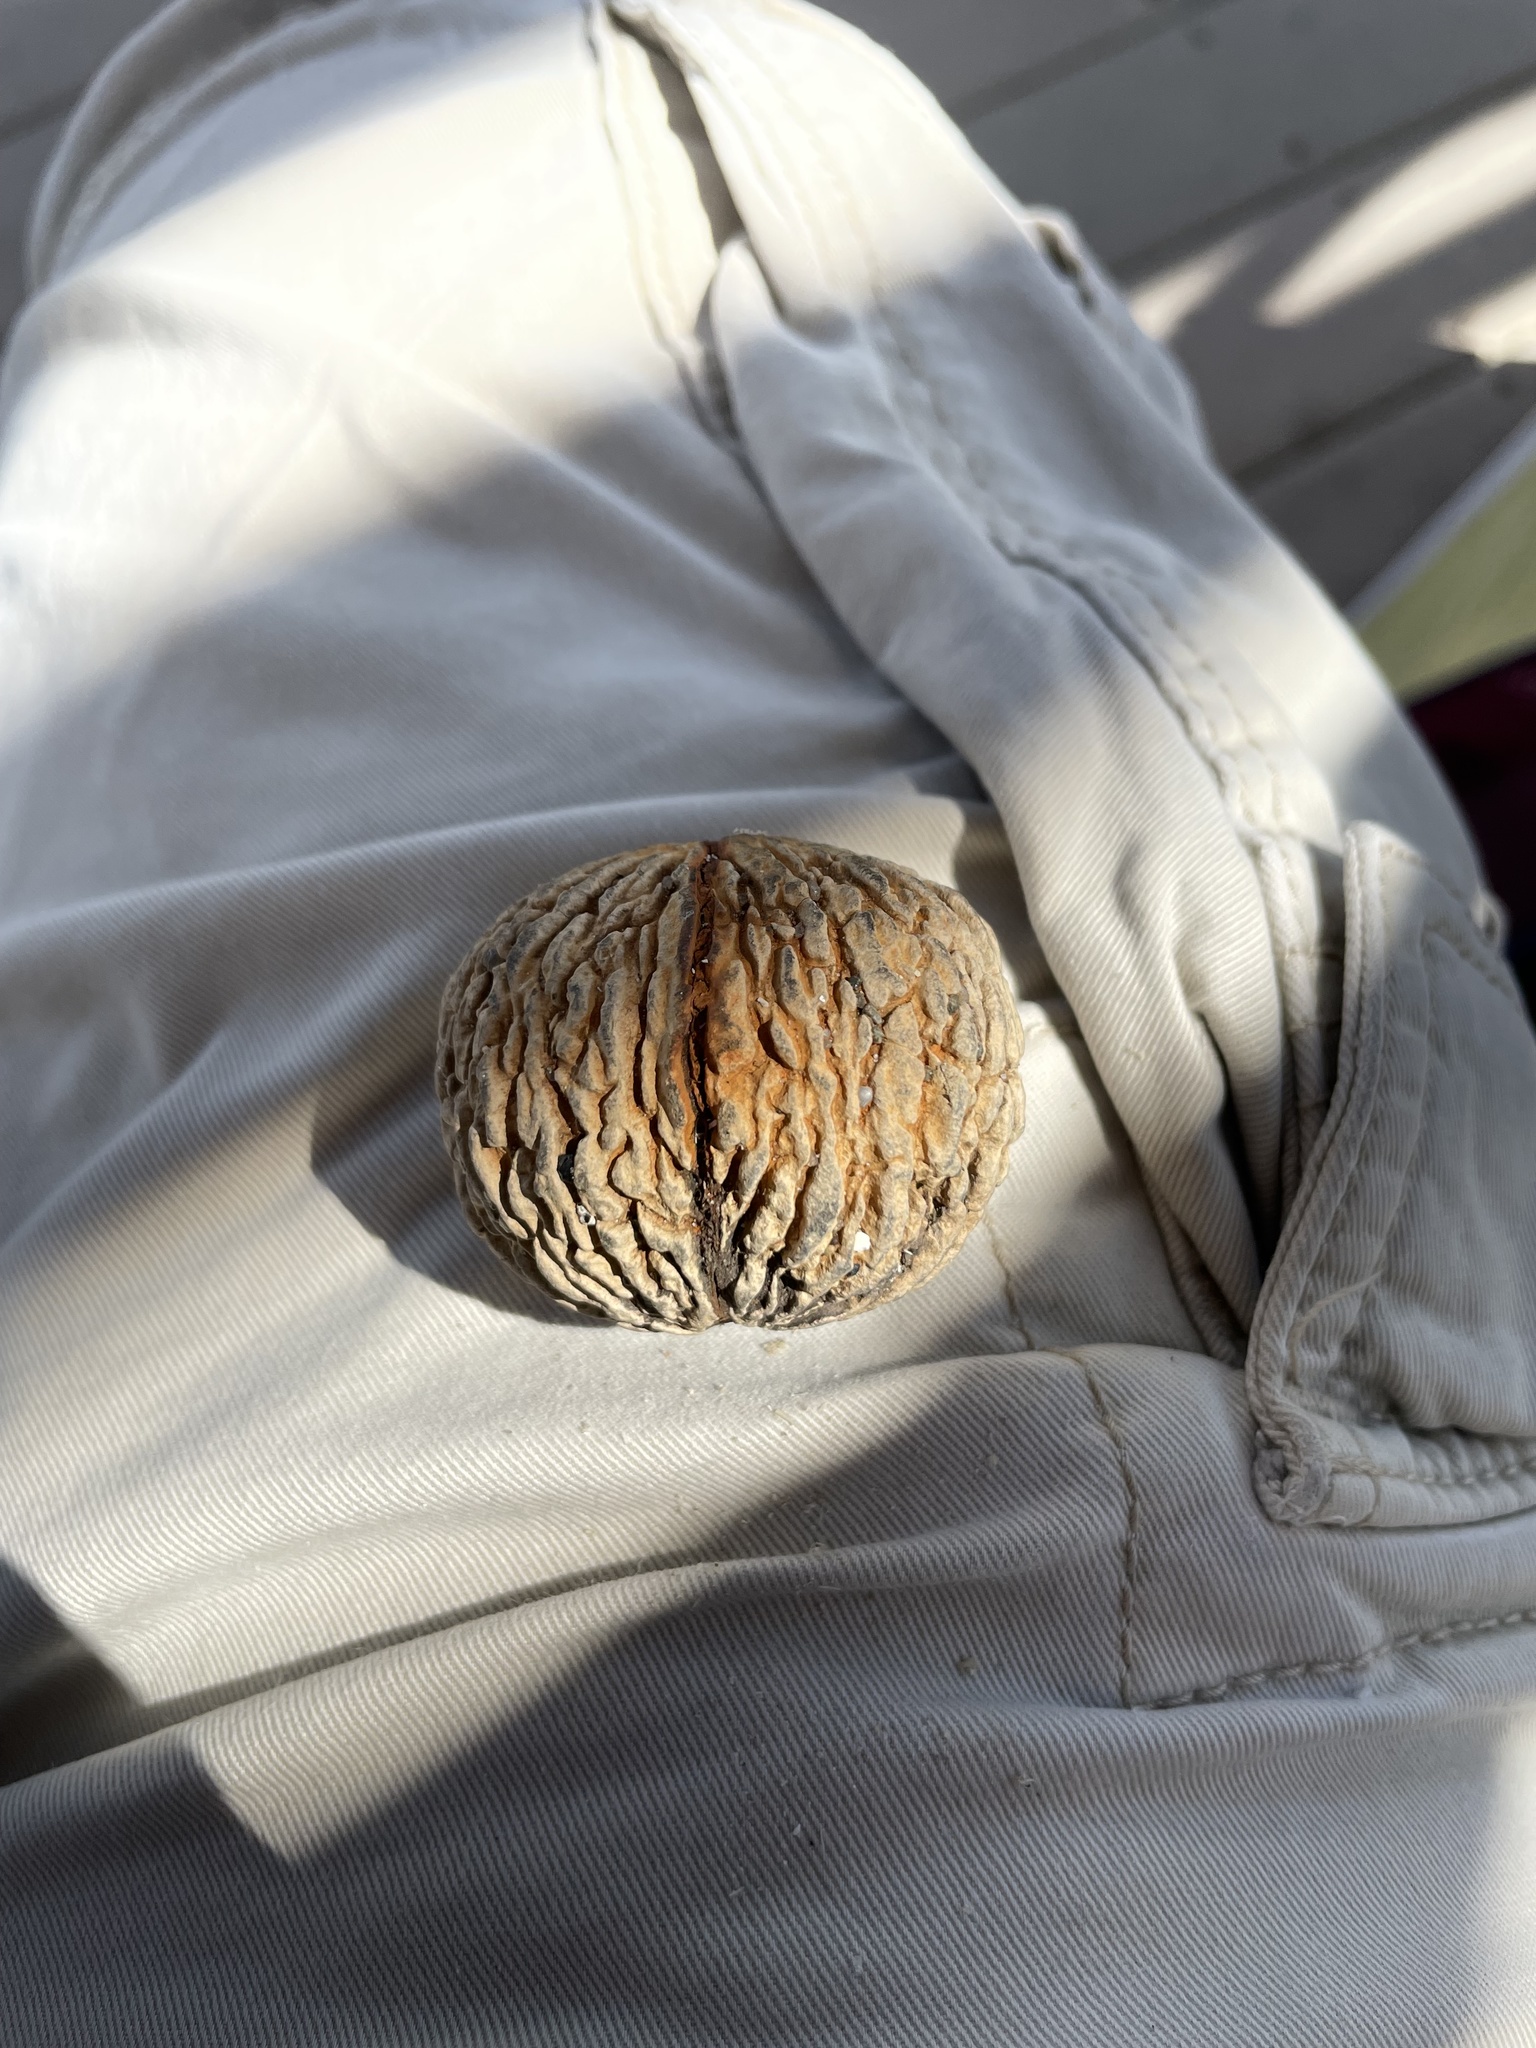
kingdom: Plantae
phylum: Tracheophyta
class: Magnoliopsida
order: Fagales
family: Juglandaceae
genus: Juglans
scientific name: Juglans nigra
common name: Black walnut
